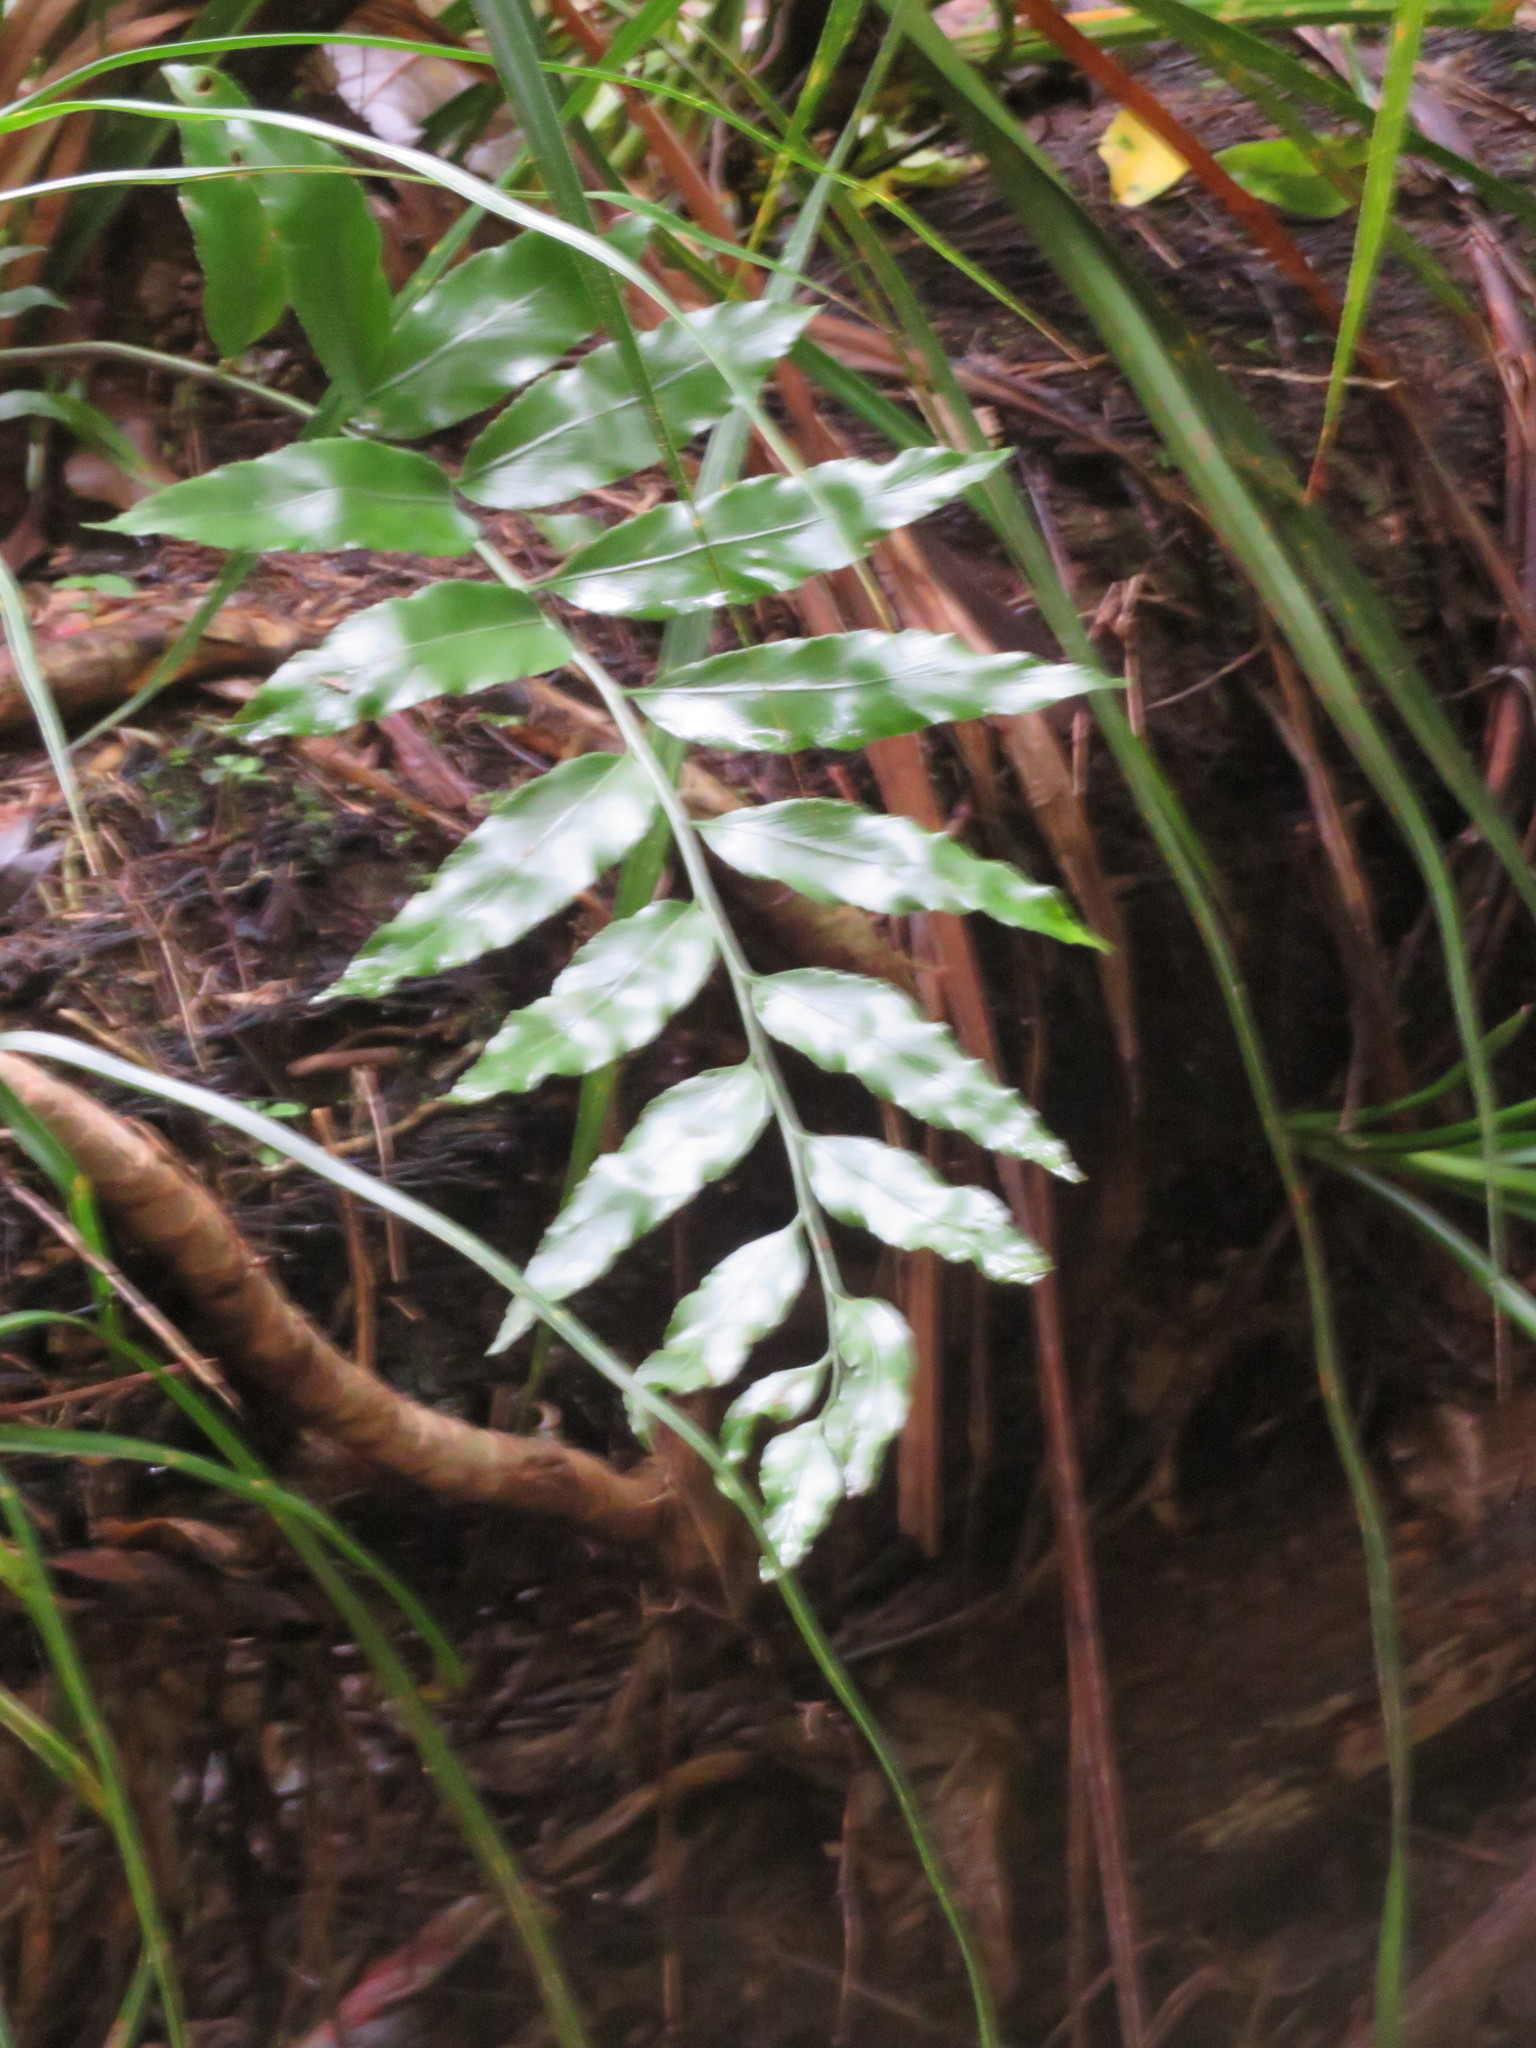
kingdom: Plantae
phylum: Tracheophyta
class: Polypodiopsida
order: Polypodiales
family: Aspleniaceae
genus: Asplenium
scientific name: Asplenium oblongifolium
